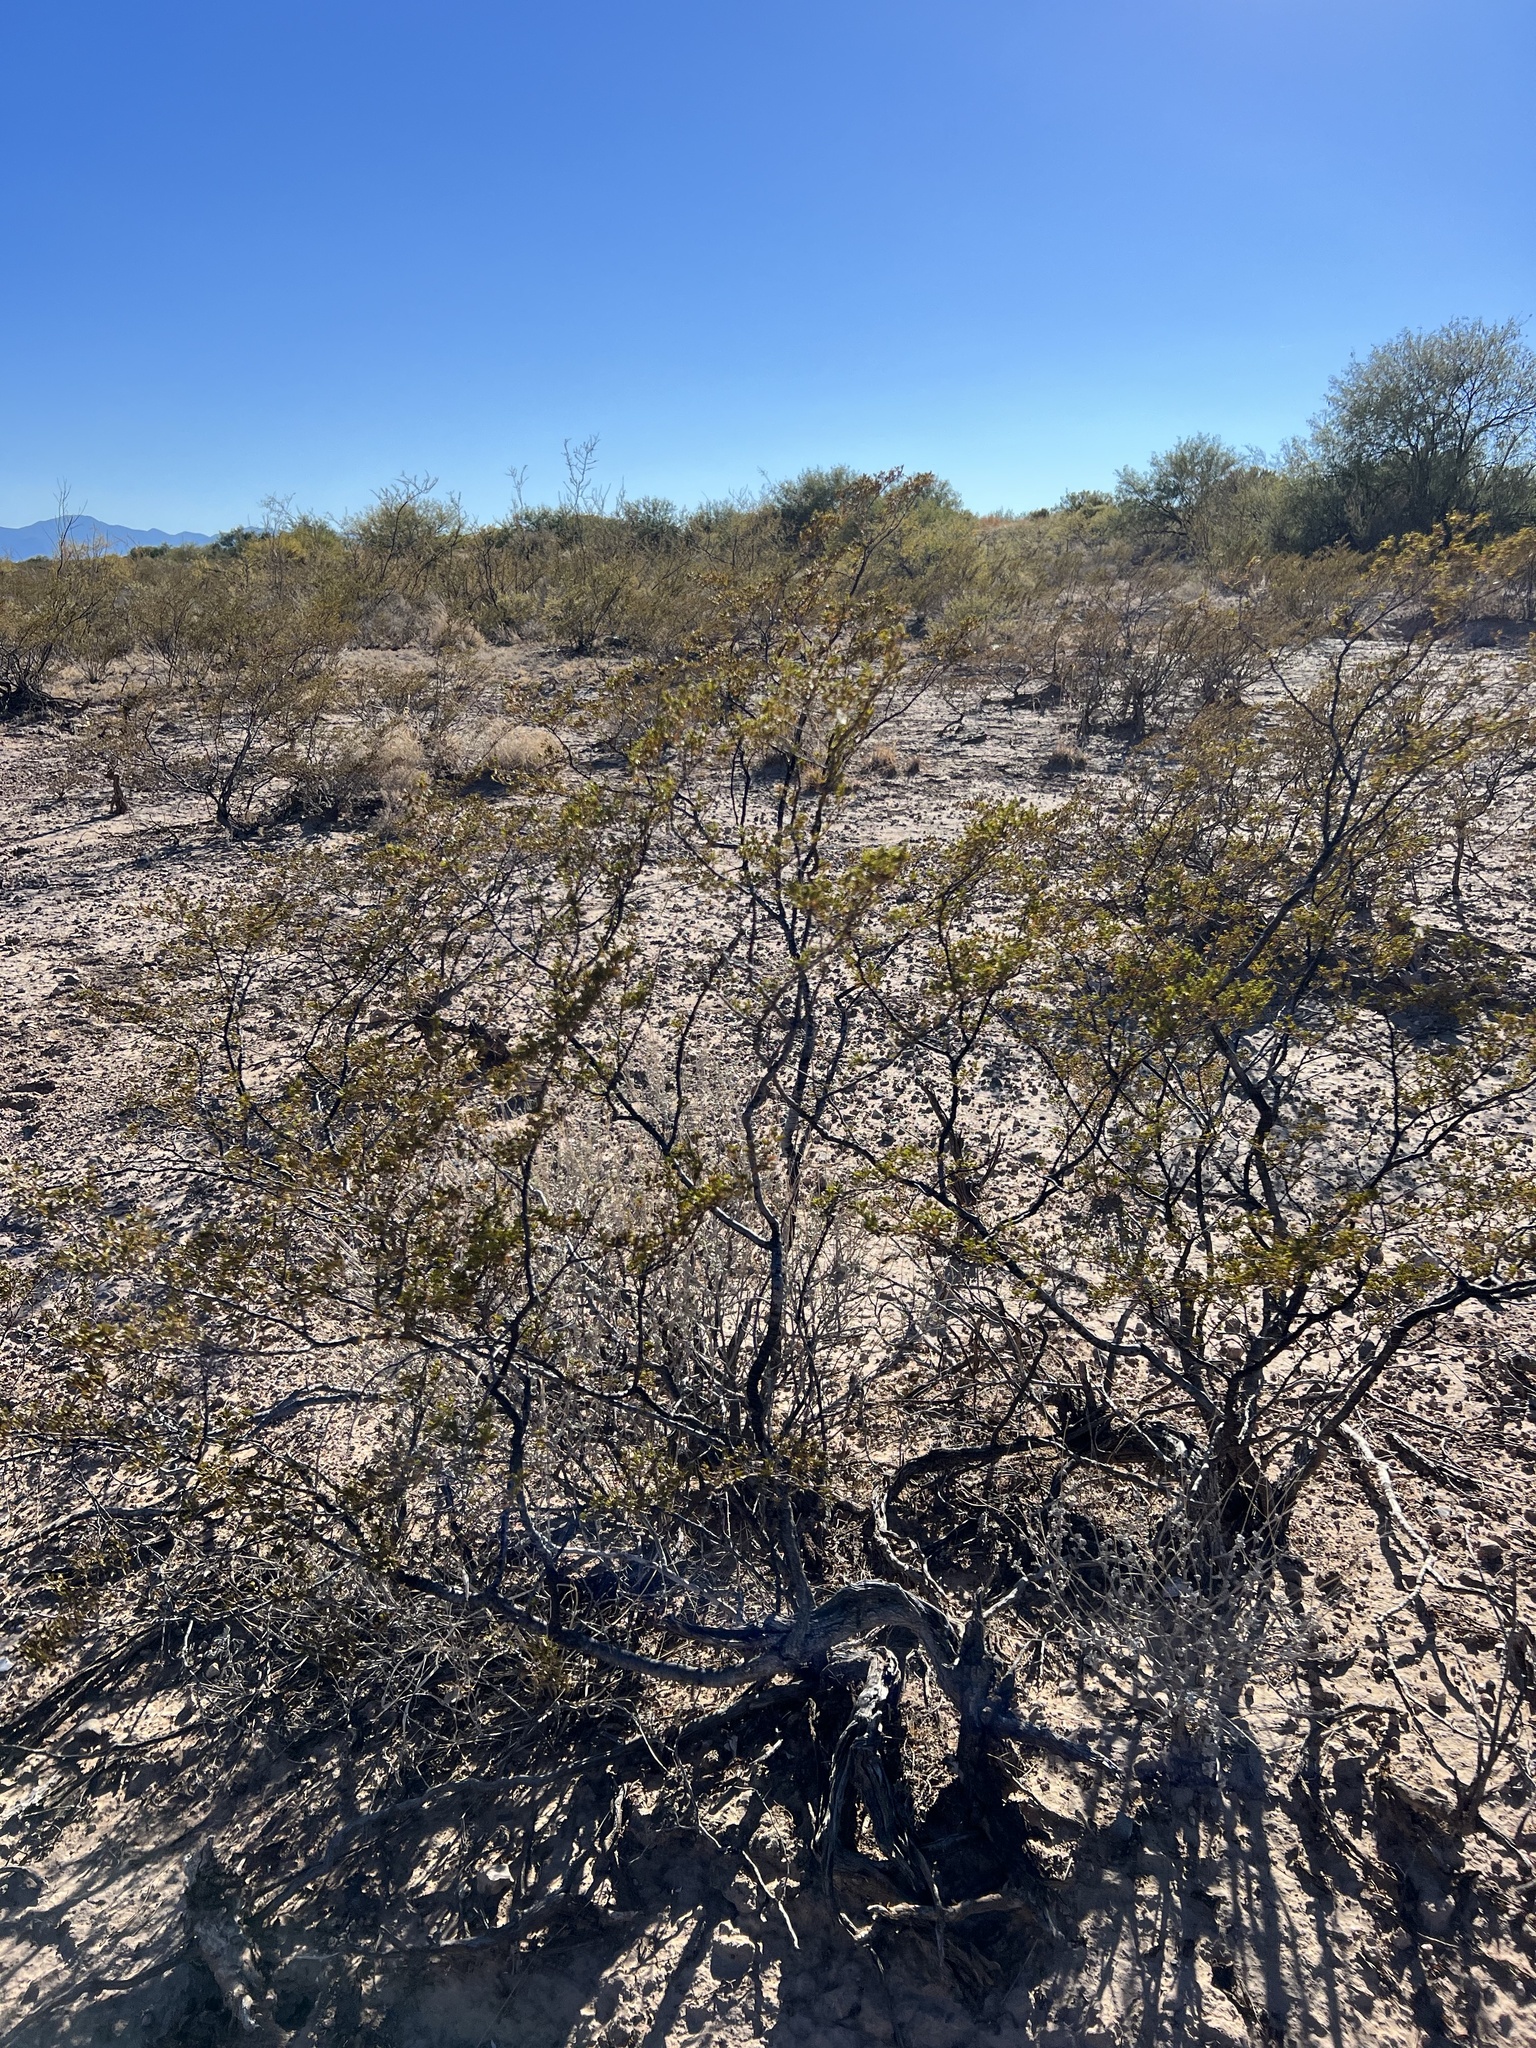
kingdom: Plantae
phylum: Tracheophyta
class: Magnoliopsida
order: Zygophyllales
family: Zygophyllaceae
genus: Larrea
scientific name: Larrea tridentata
